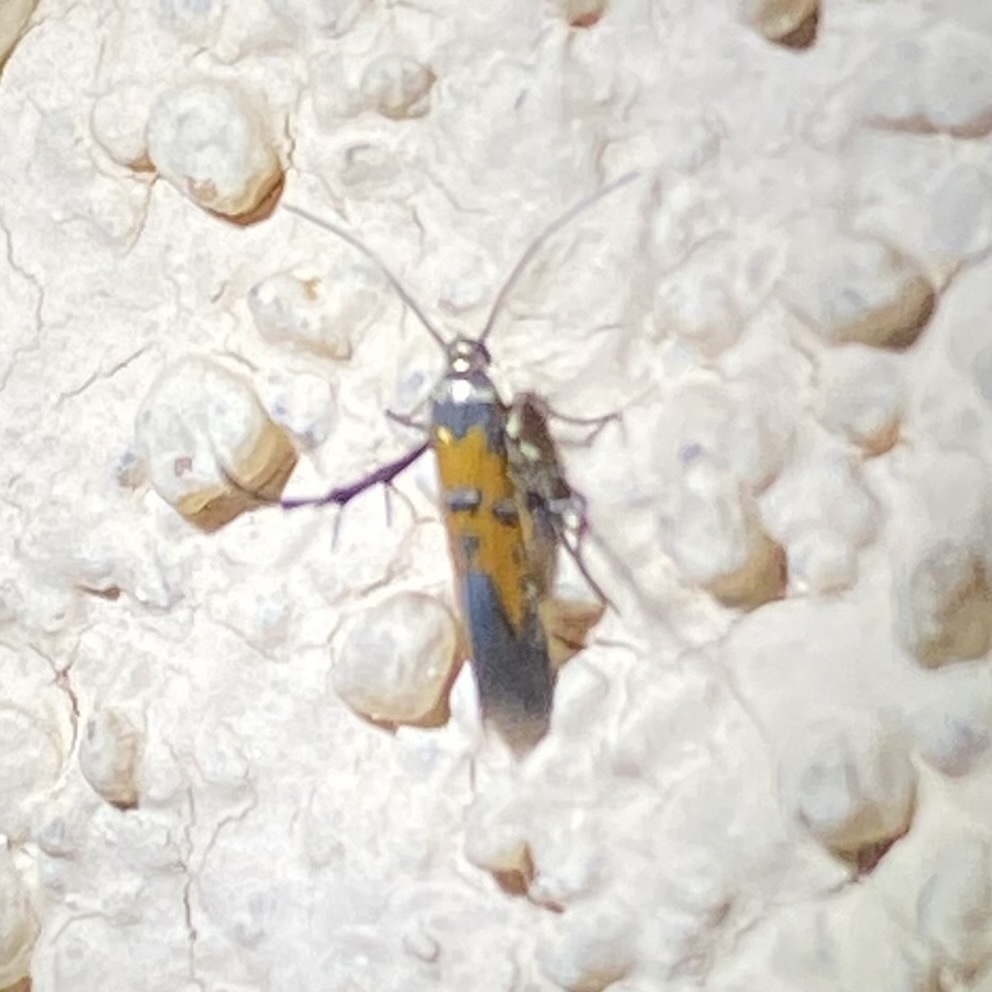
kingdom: Animalia
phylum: Arthropoda
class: Insecta
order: Lepidoptera
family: Heliodinidae
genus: Heliodines
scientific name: Heliodines
